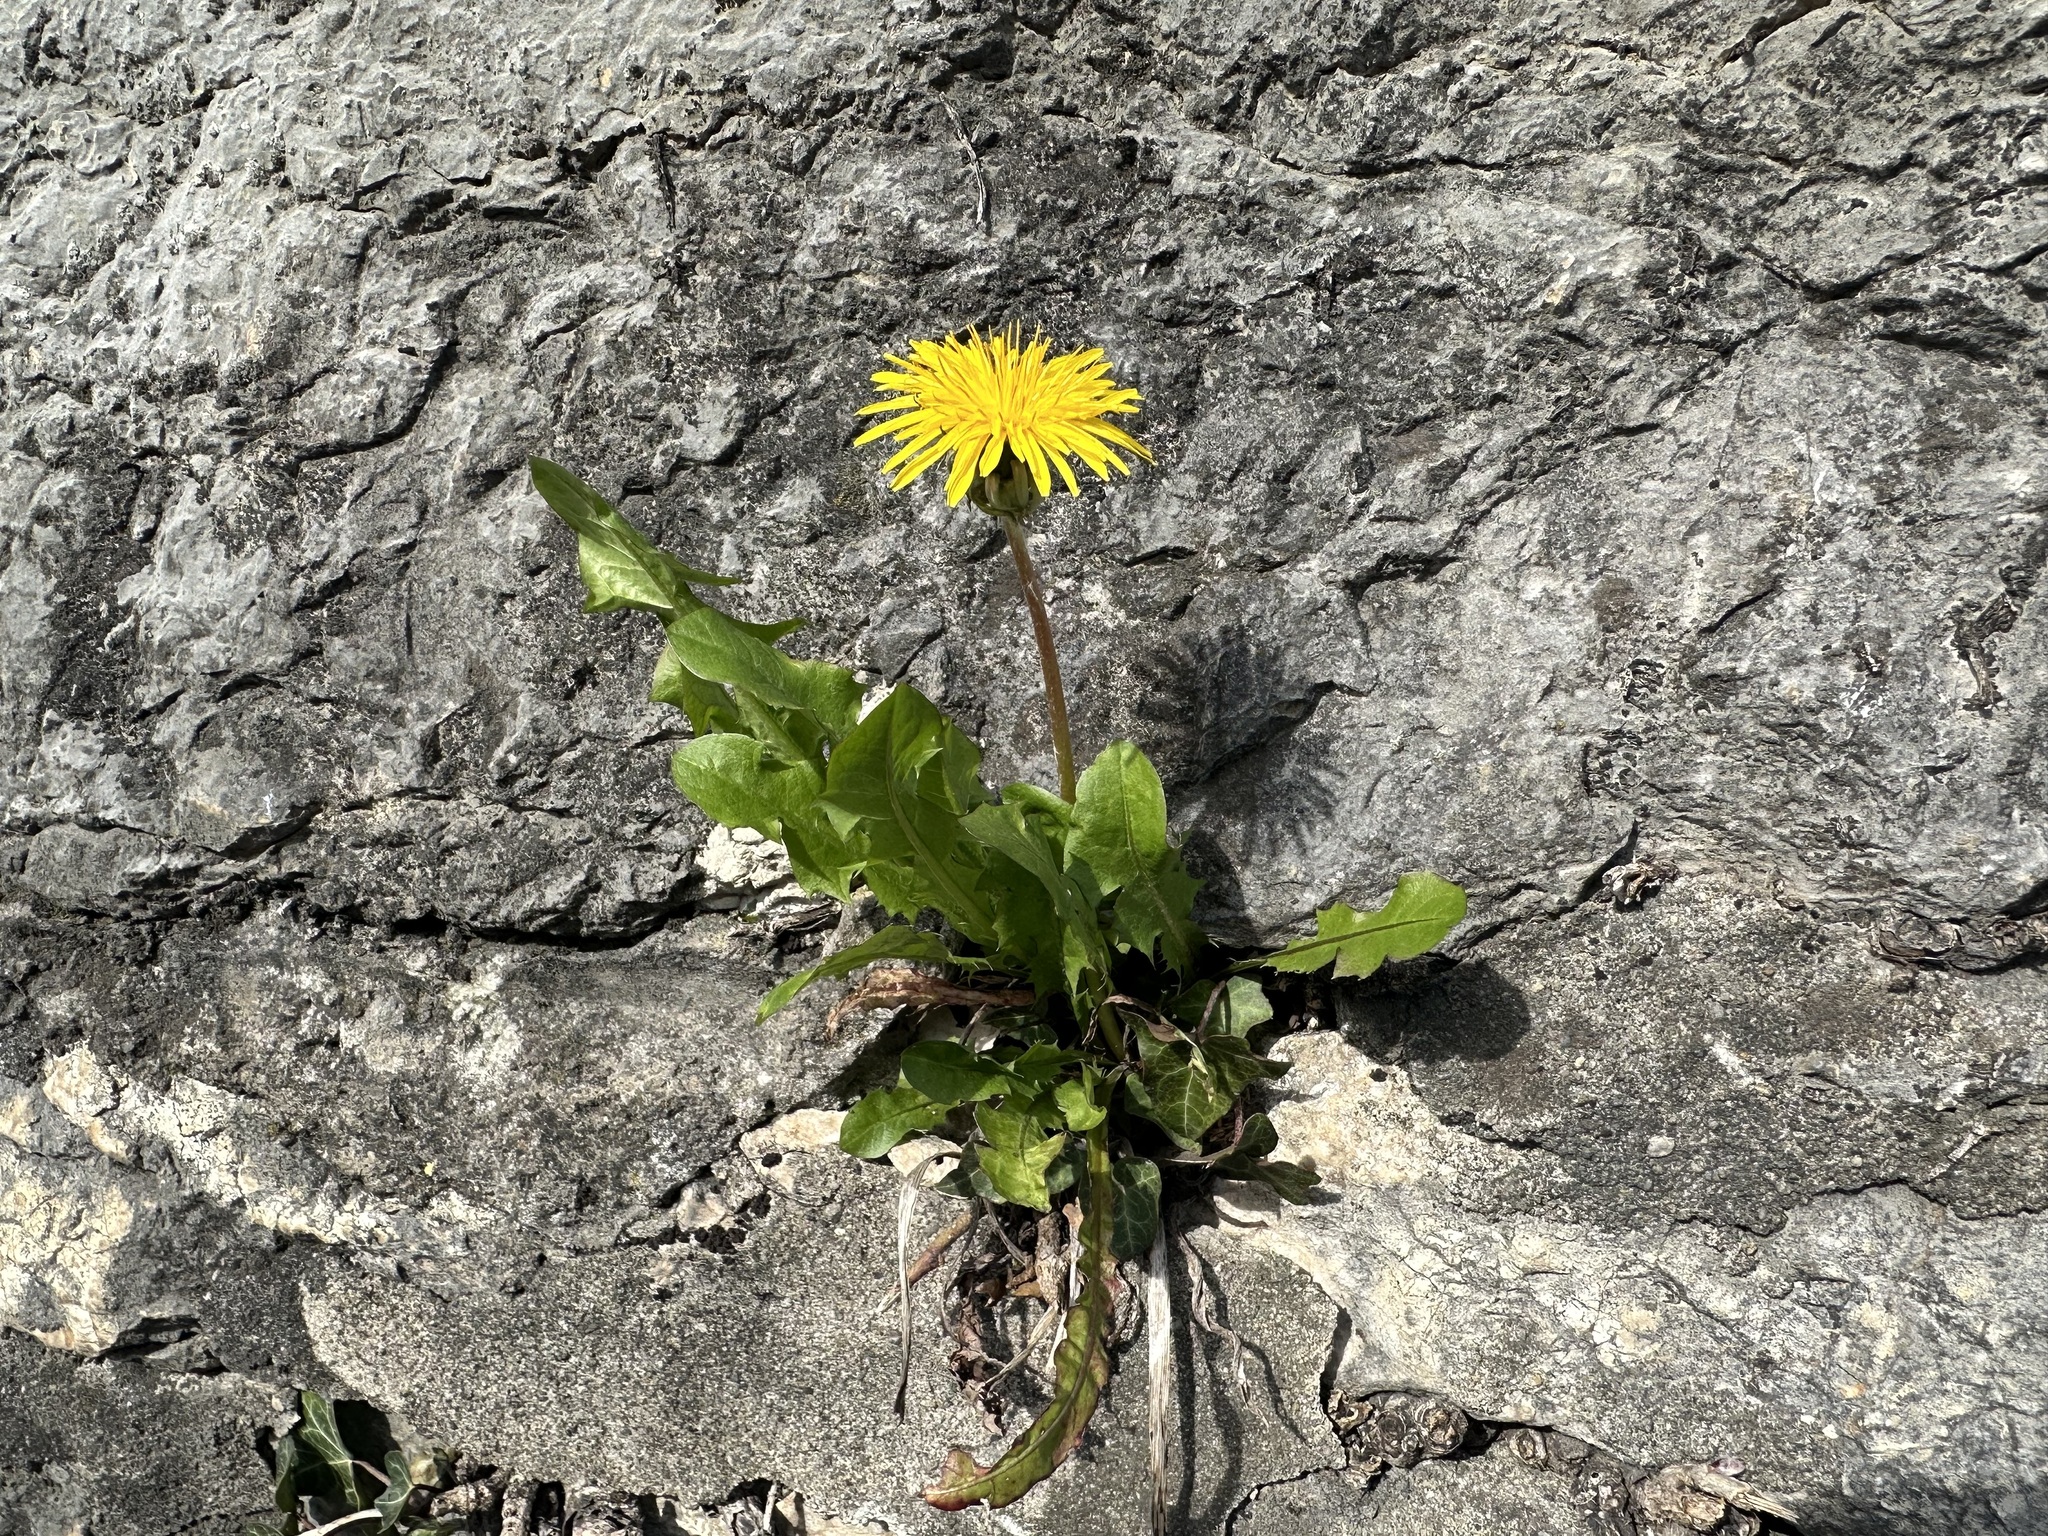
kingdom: Plantae
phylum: Tracheophyta
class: Magnoliopsida
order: Asterales
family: Asteraceae
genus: Taraxacum
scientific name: Taraxacum officinale
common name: Common dandelion
